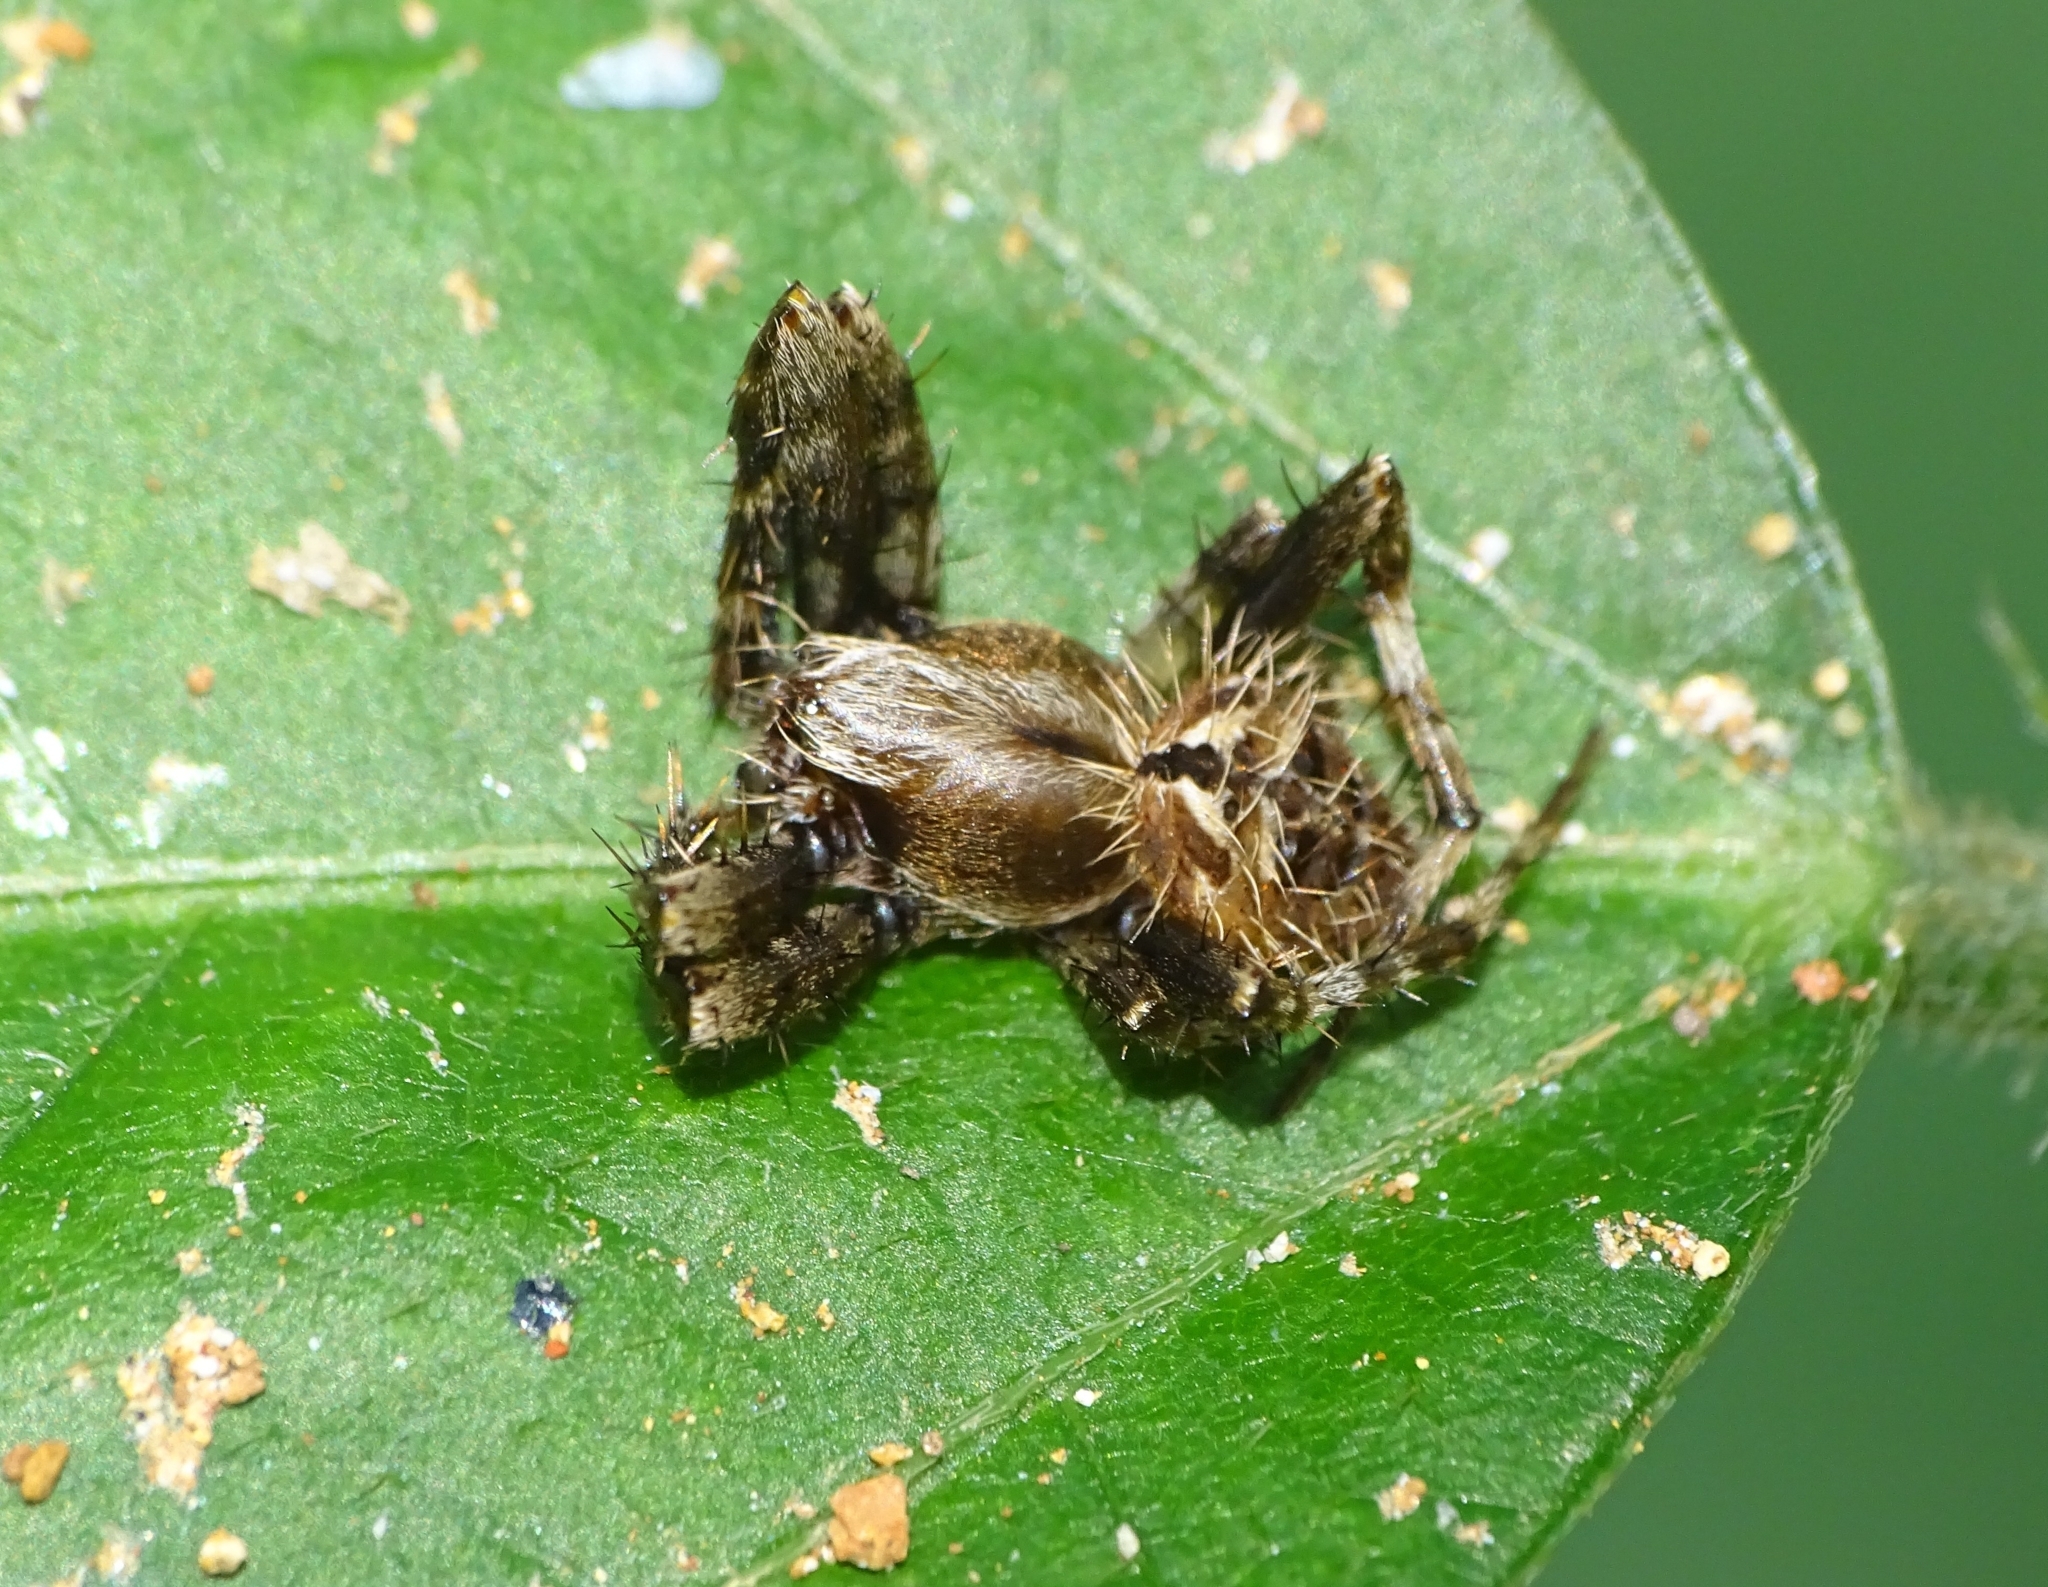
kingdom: Animalia
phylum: Arthropoda
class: Arachnida
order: Araneae
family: Araneidae
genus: Neoscona
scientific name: Neoscona mukerjei
